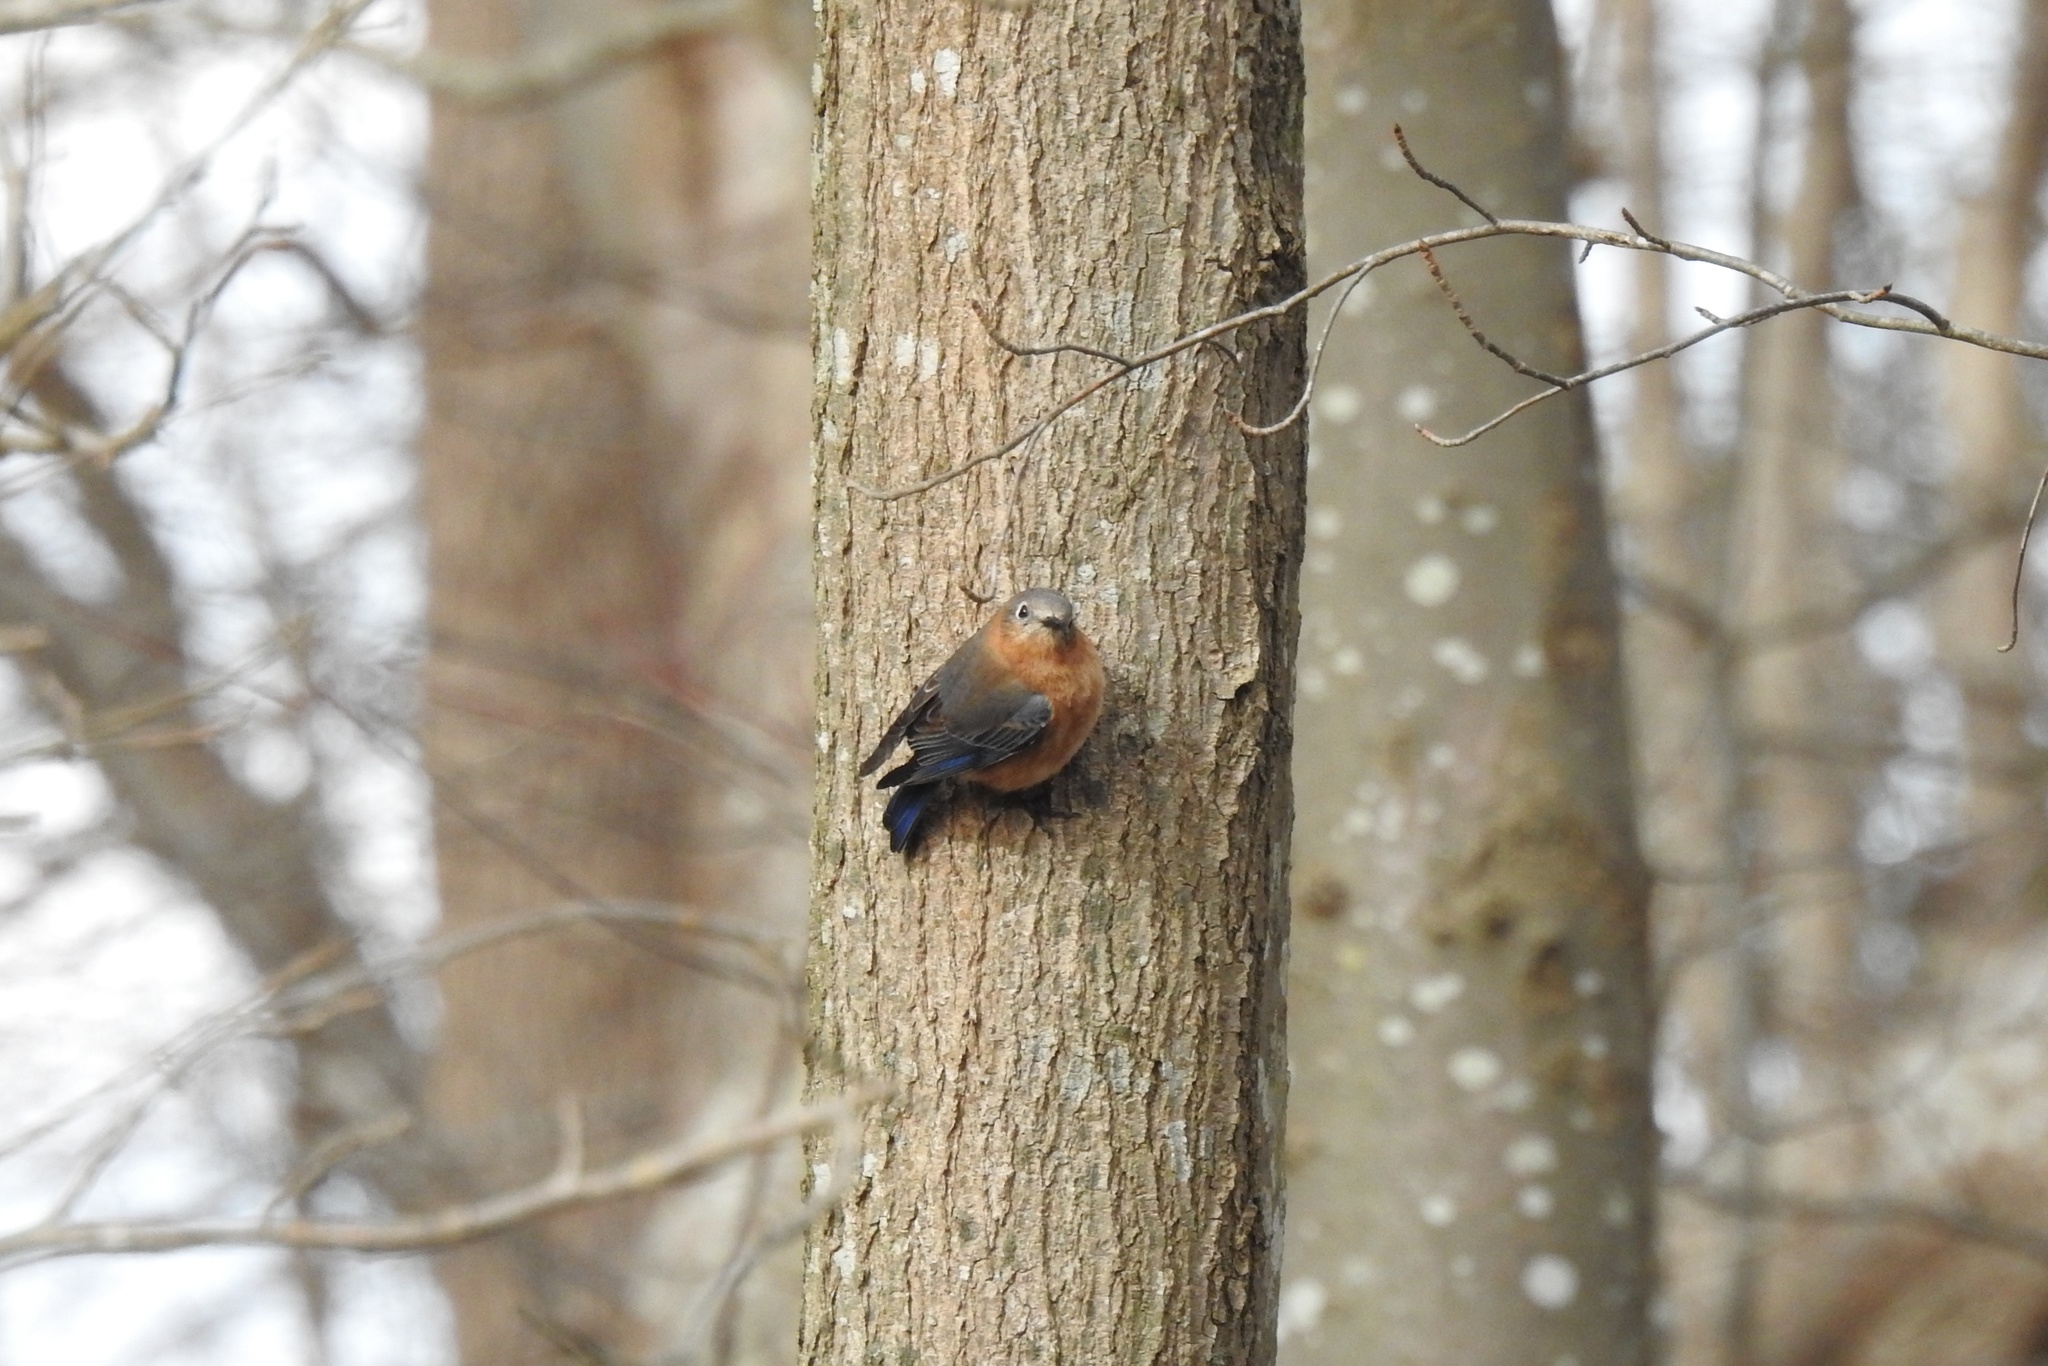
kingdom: Animalia
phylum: Chordata
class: Aves
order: Passeriformes
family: Turdidae
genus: Sialia
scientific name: Sialia sialis
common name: Eastern bluebird
